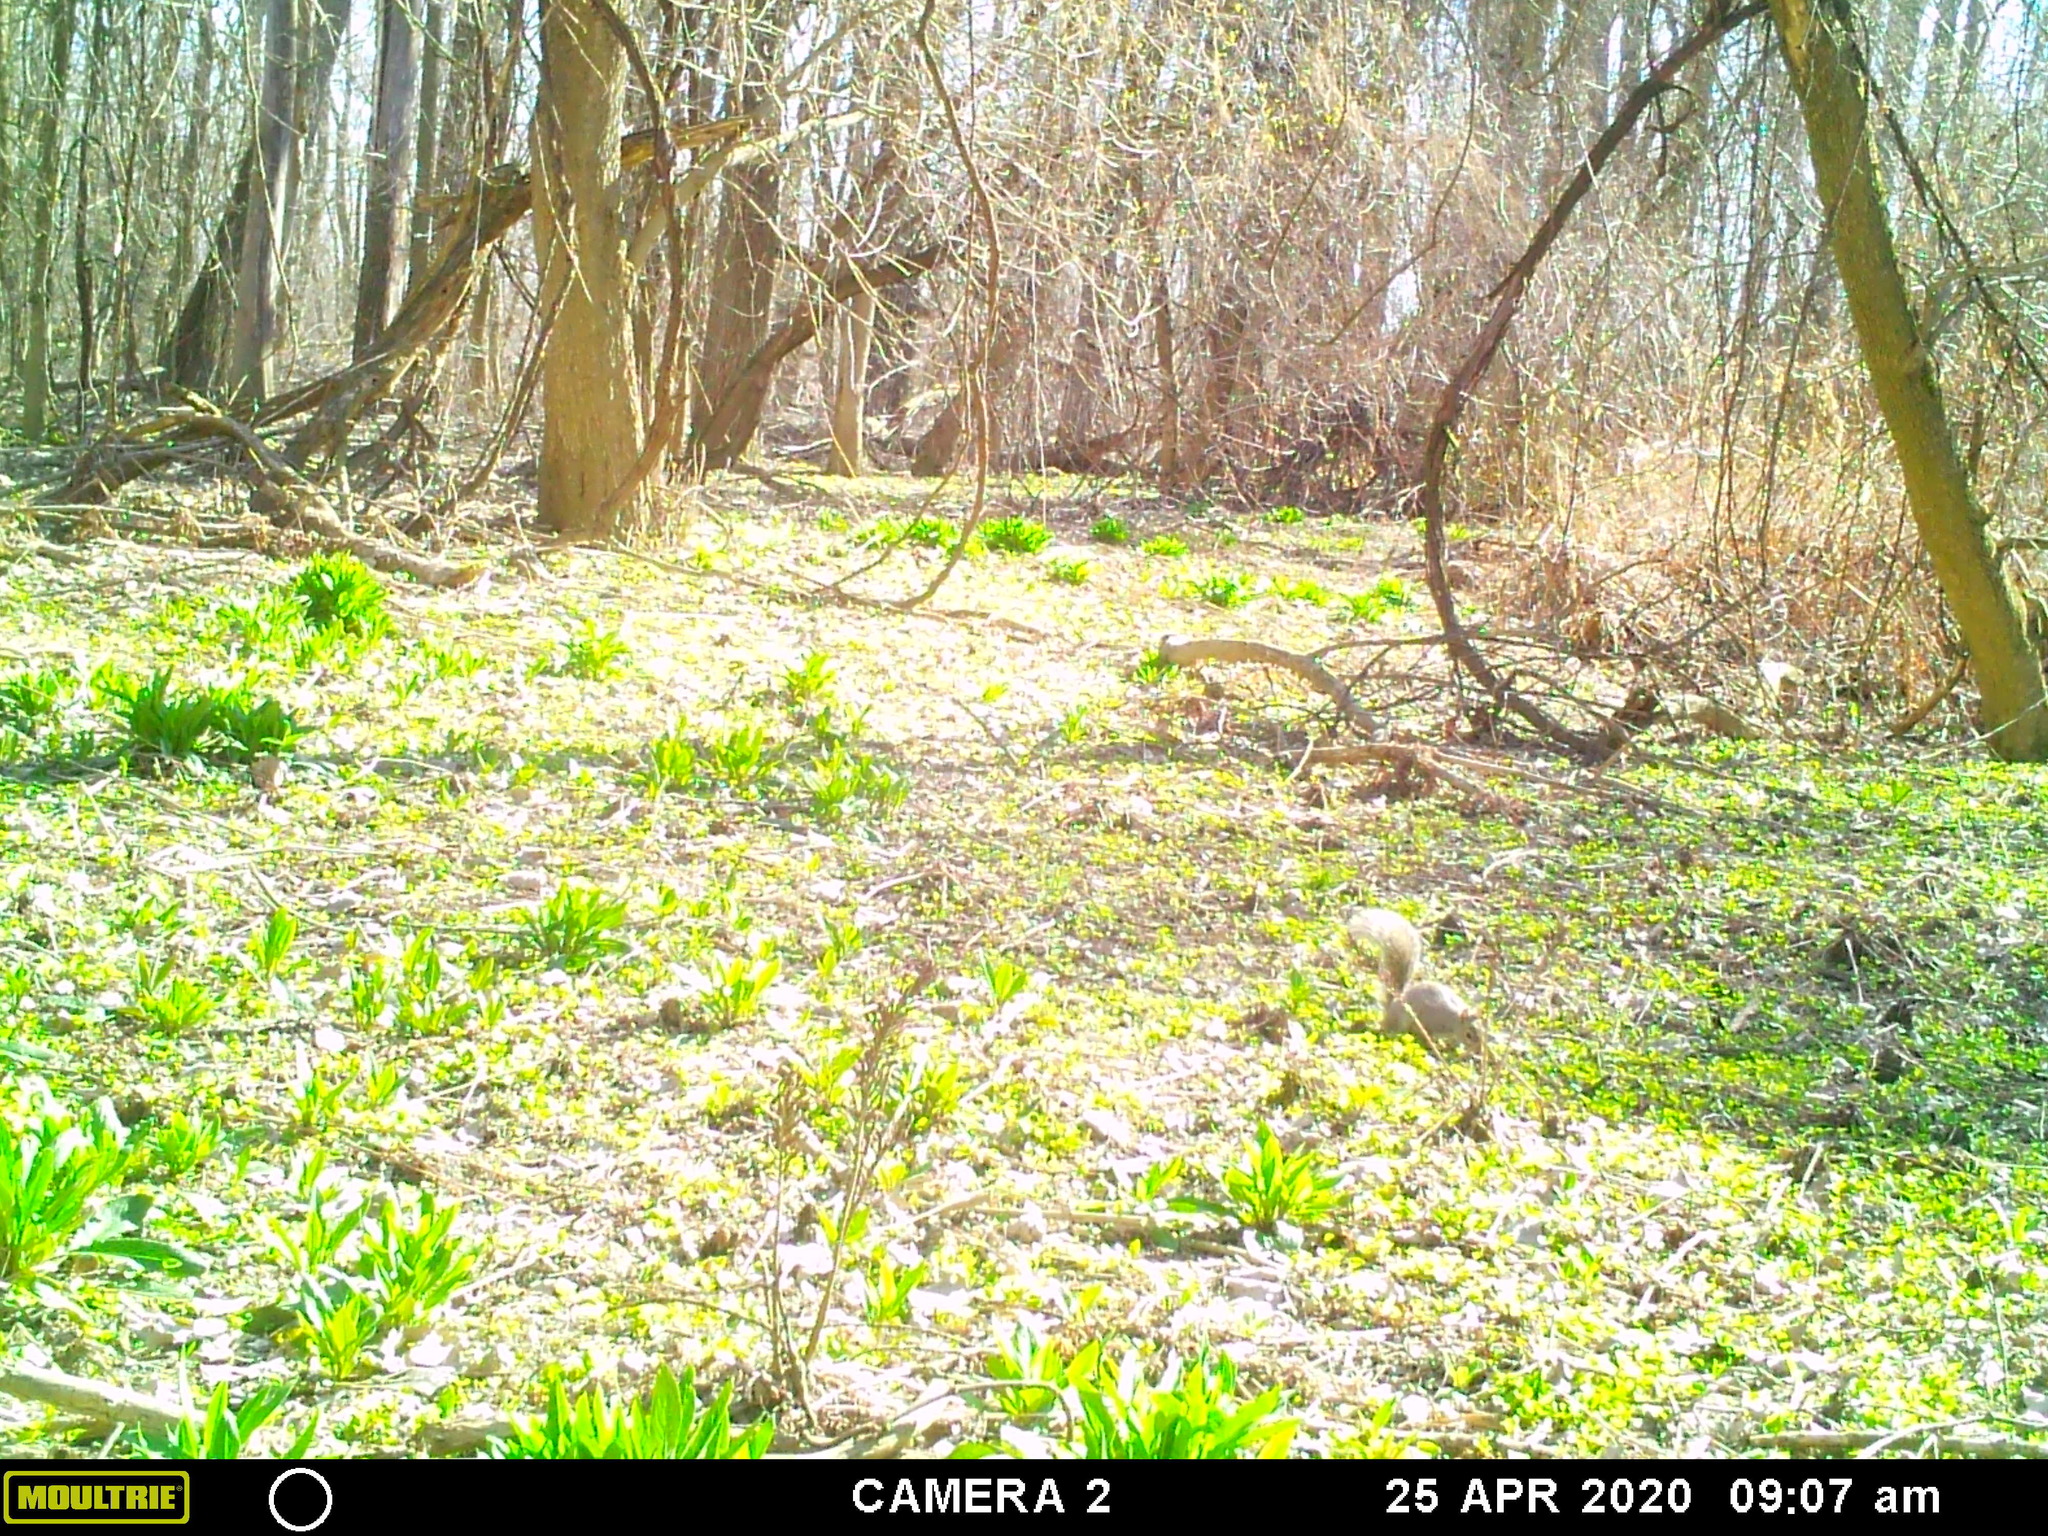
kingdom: Animalia
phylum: Chordata
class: Mammalia
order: Rodentia
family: Sciuridae
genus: Sciurus
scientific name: Sciurus carolinensis
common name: Eastern gray squirrel
